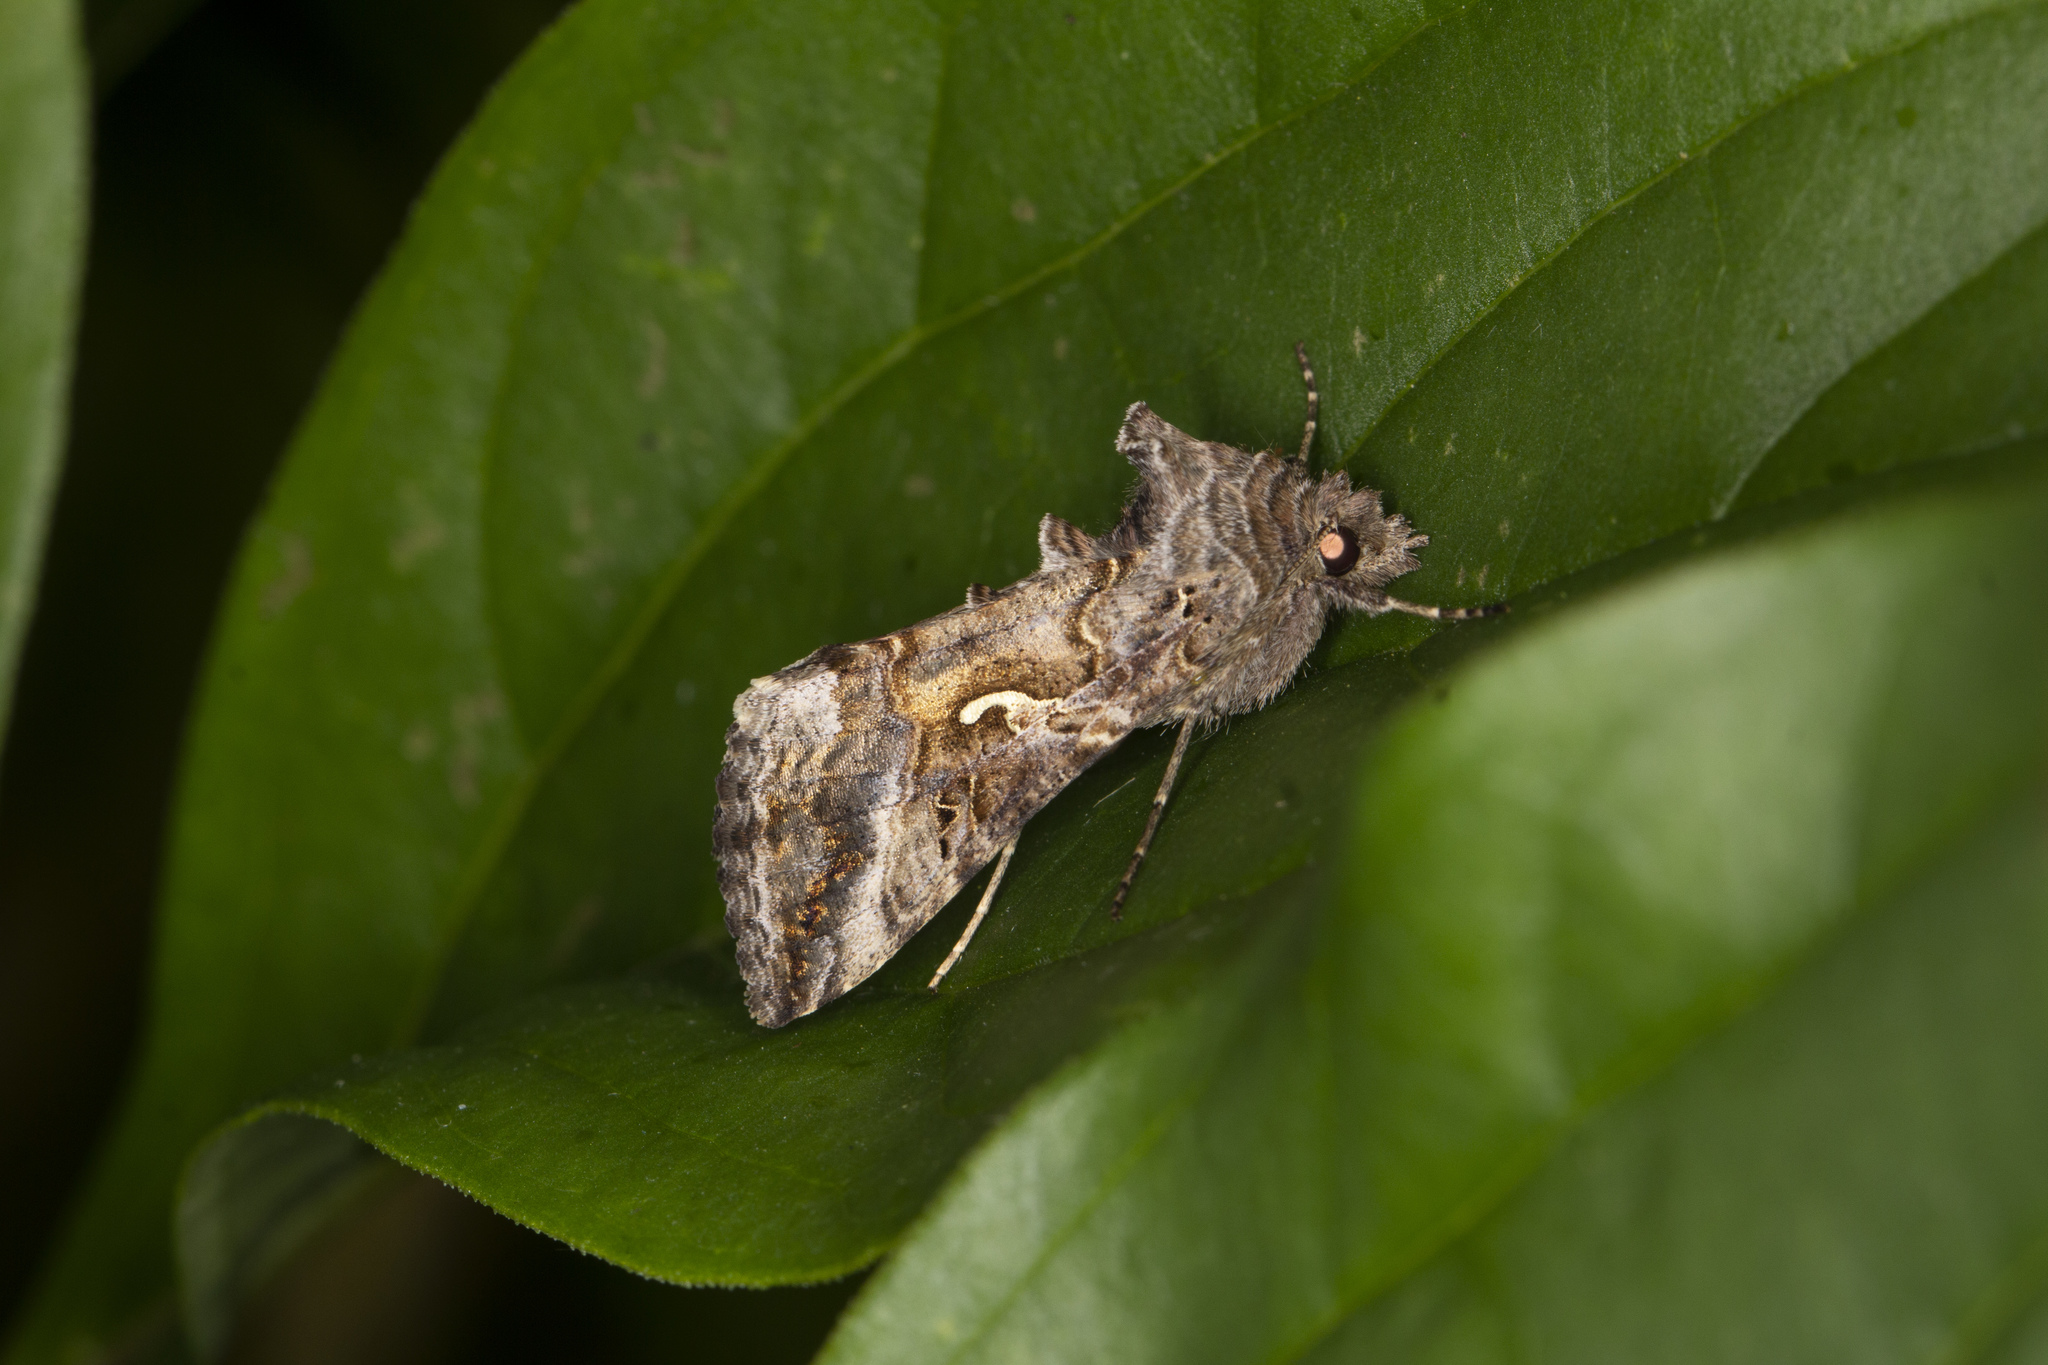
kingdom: Animalia
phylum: Arthropoda
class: Insecta
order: Lepidoptera
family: Noctuidae
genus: Autographa
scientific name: Autographa gamma
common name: Silver y
